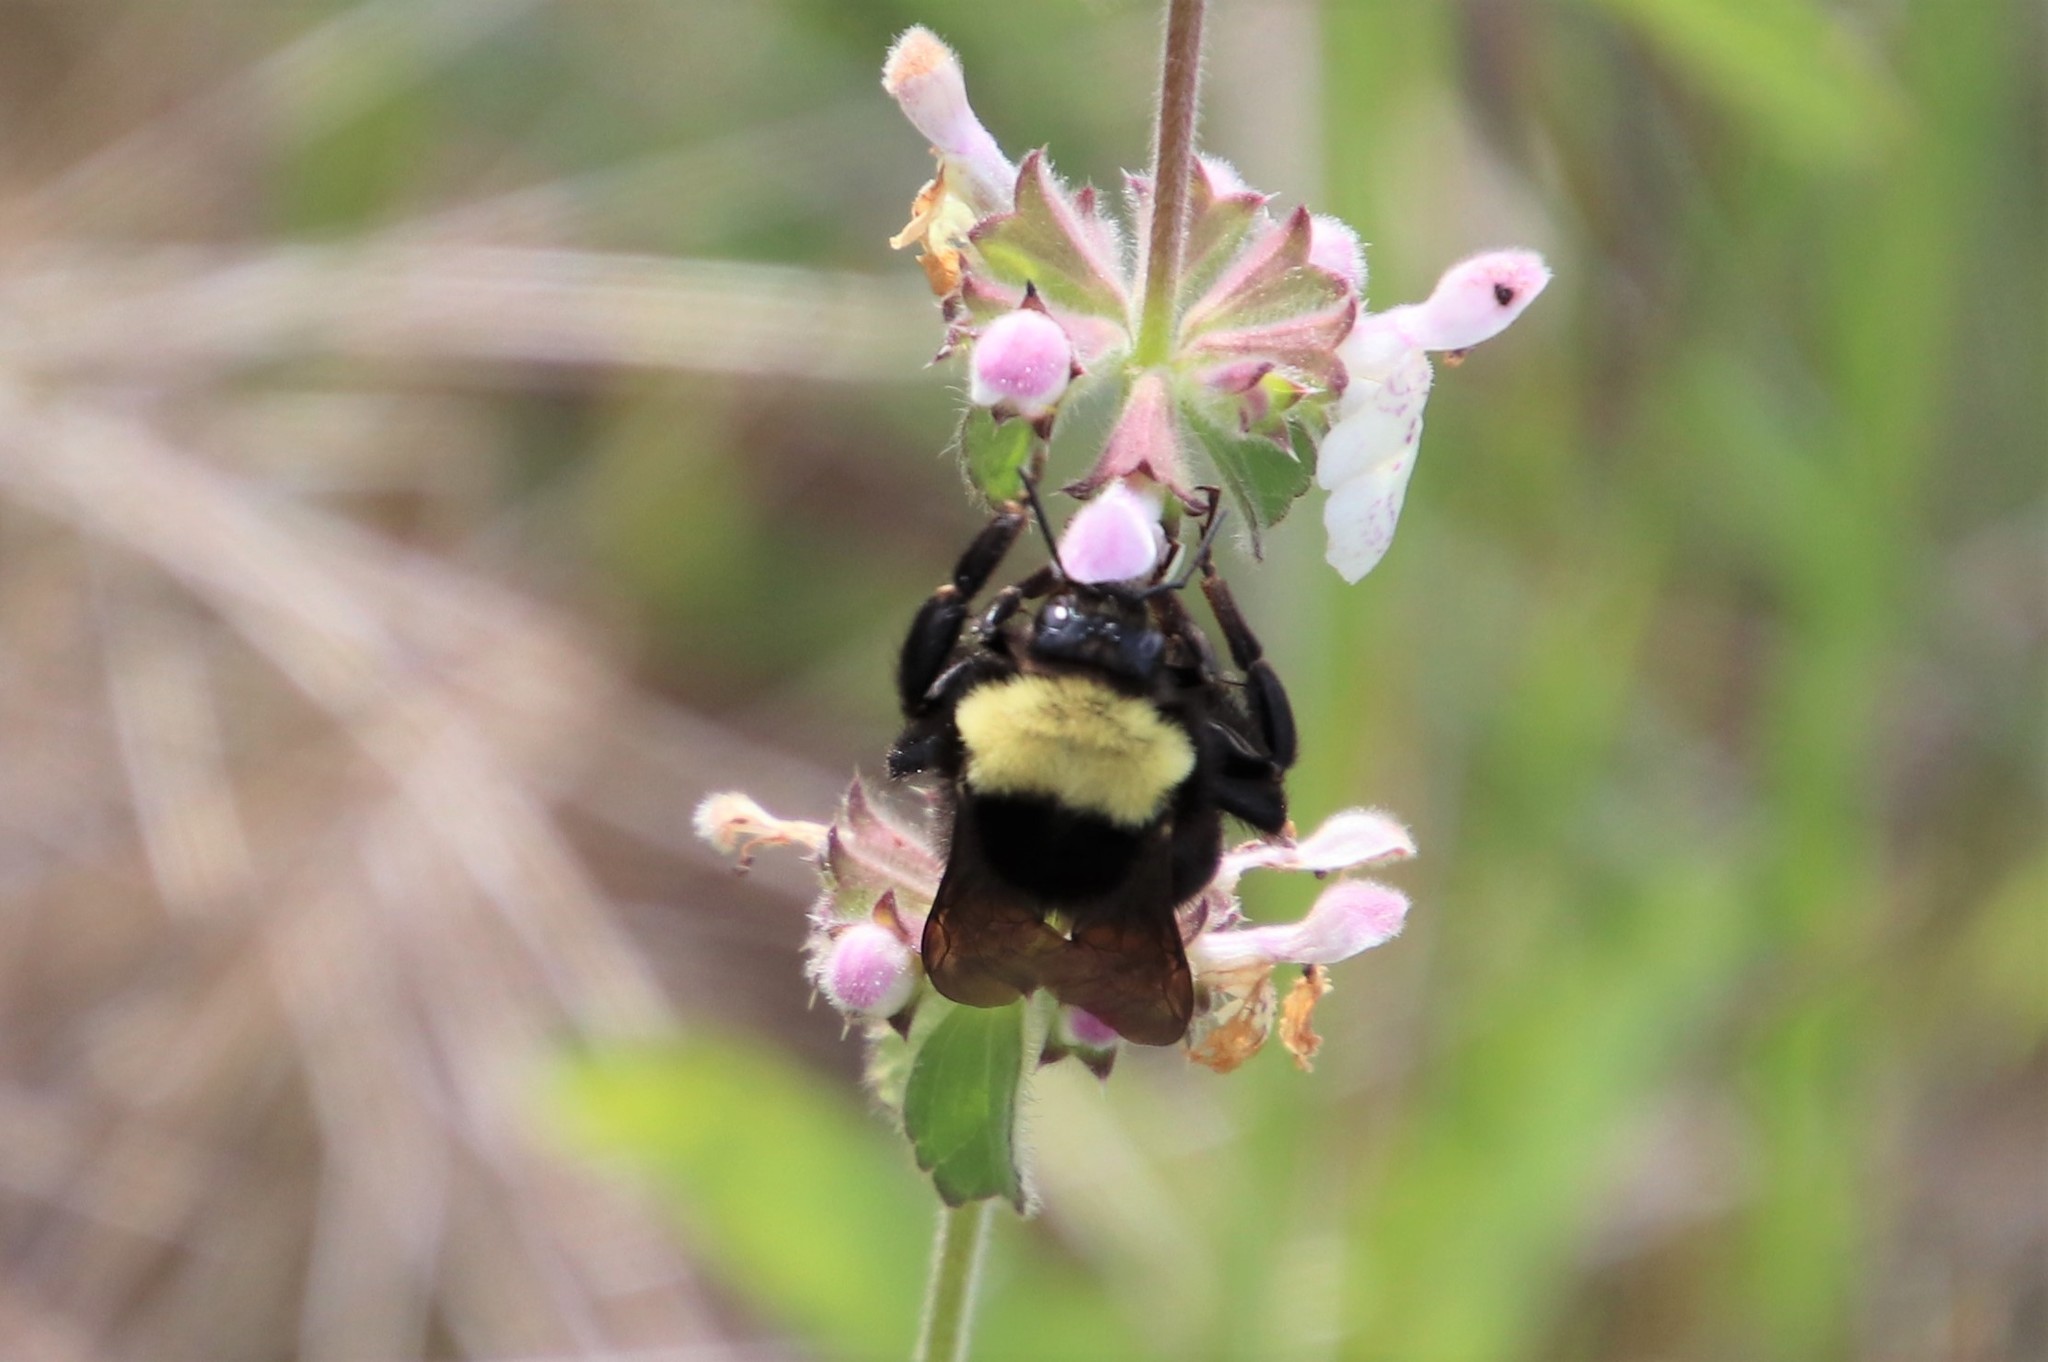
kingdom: Animalia
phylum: Arthropoda
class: Insecta
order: Hymenoptera
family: Apidae
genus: Bombus
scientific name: Bombus californicus
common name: California bumble bee
